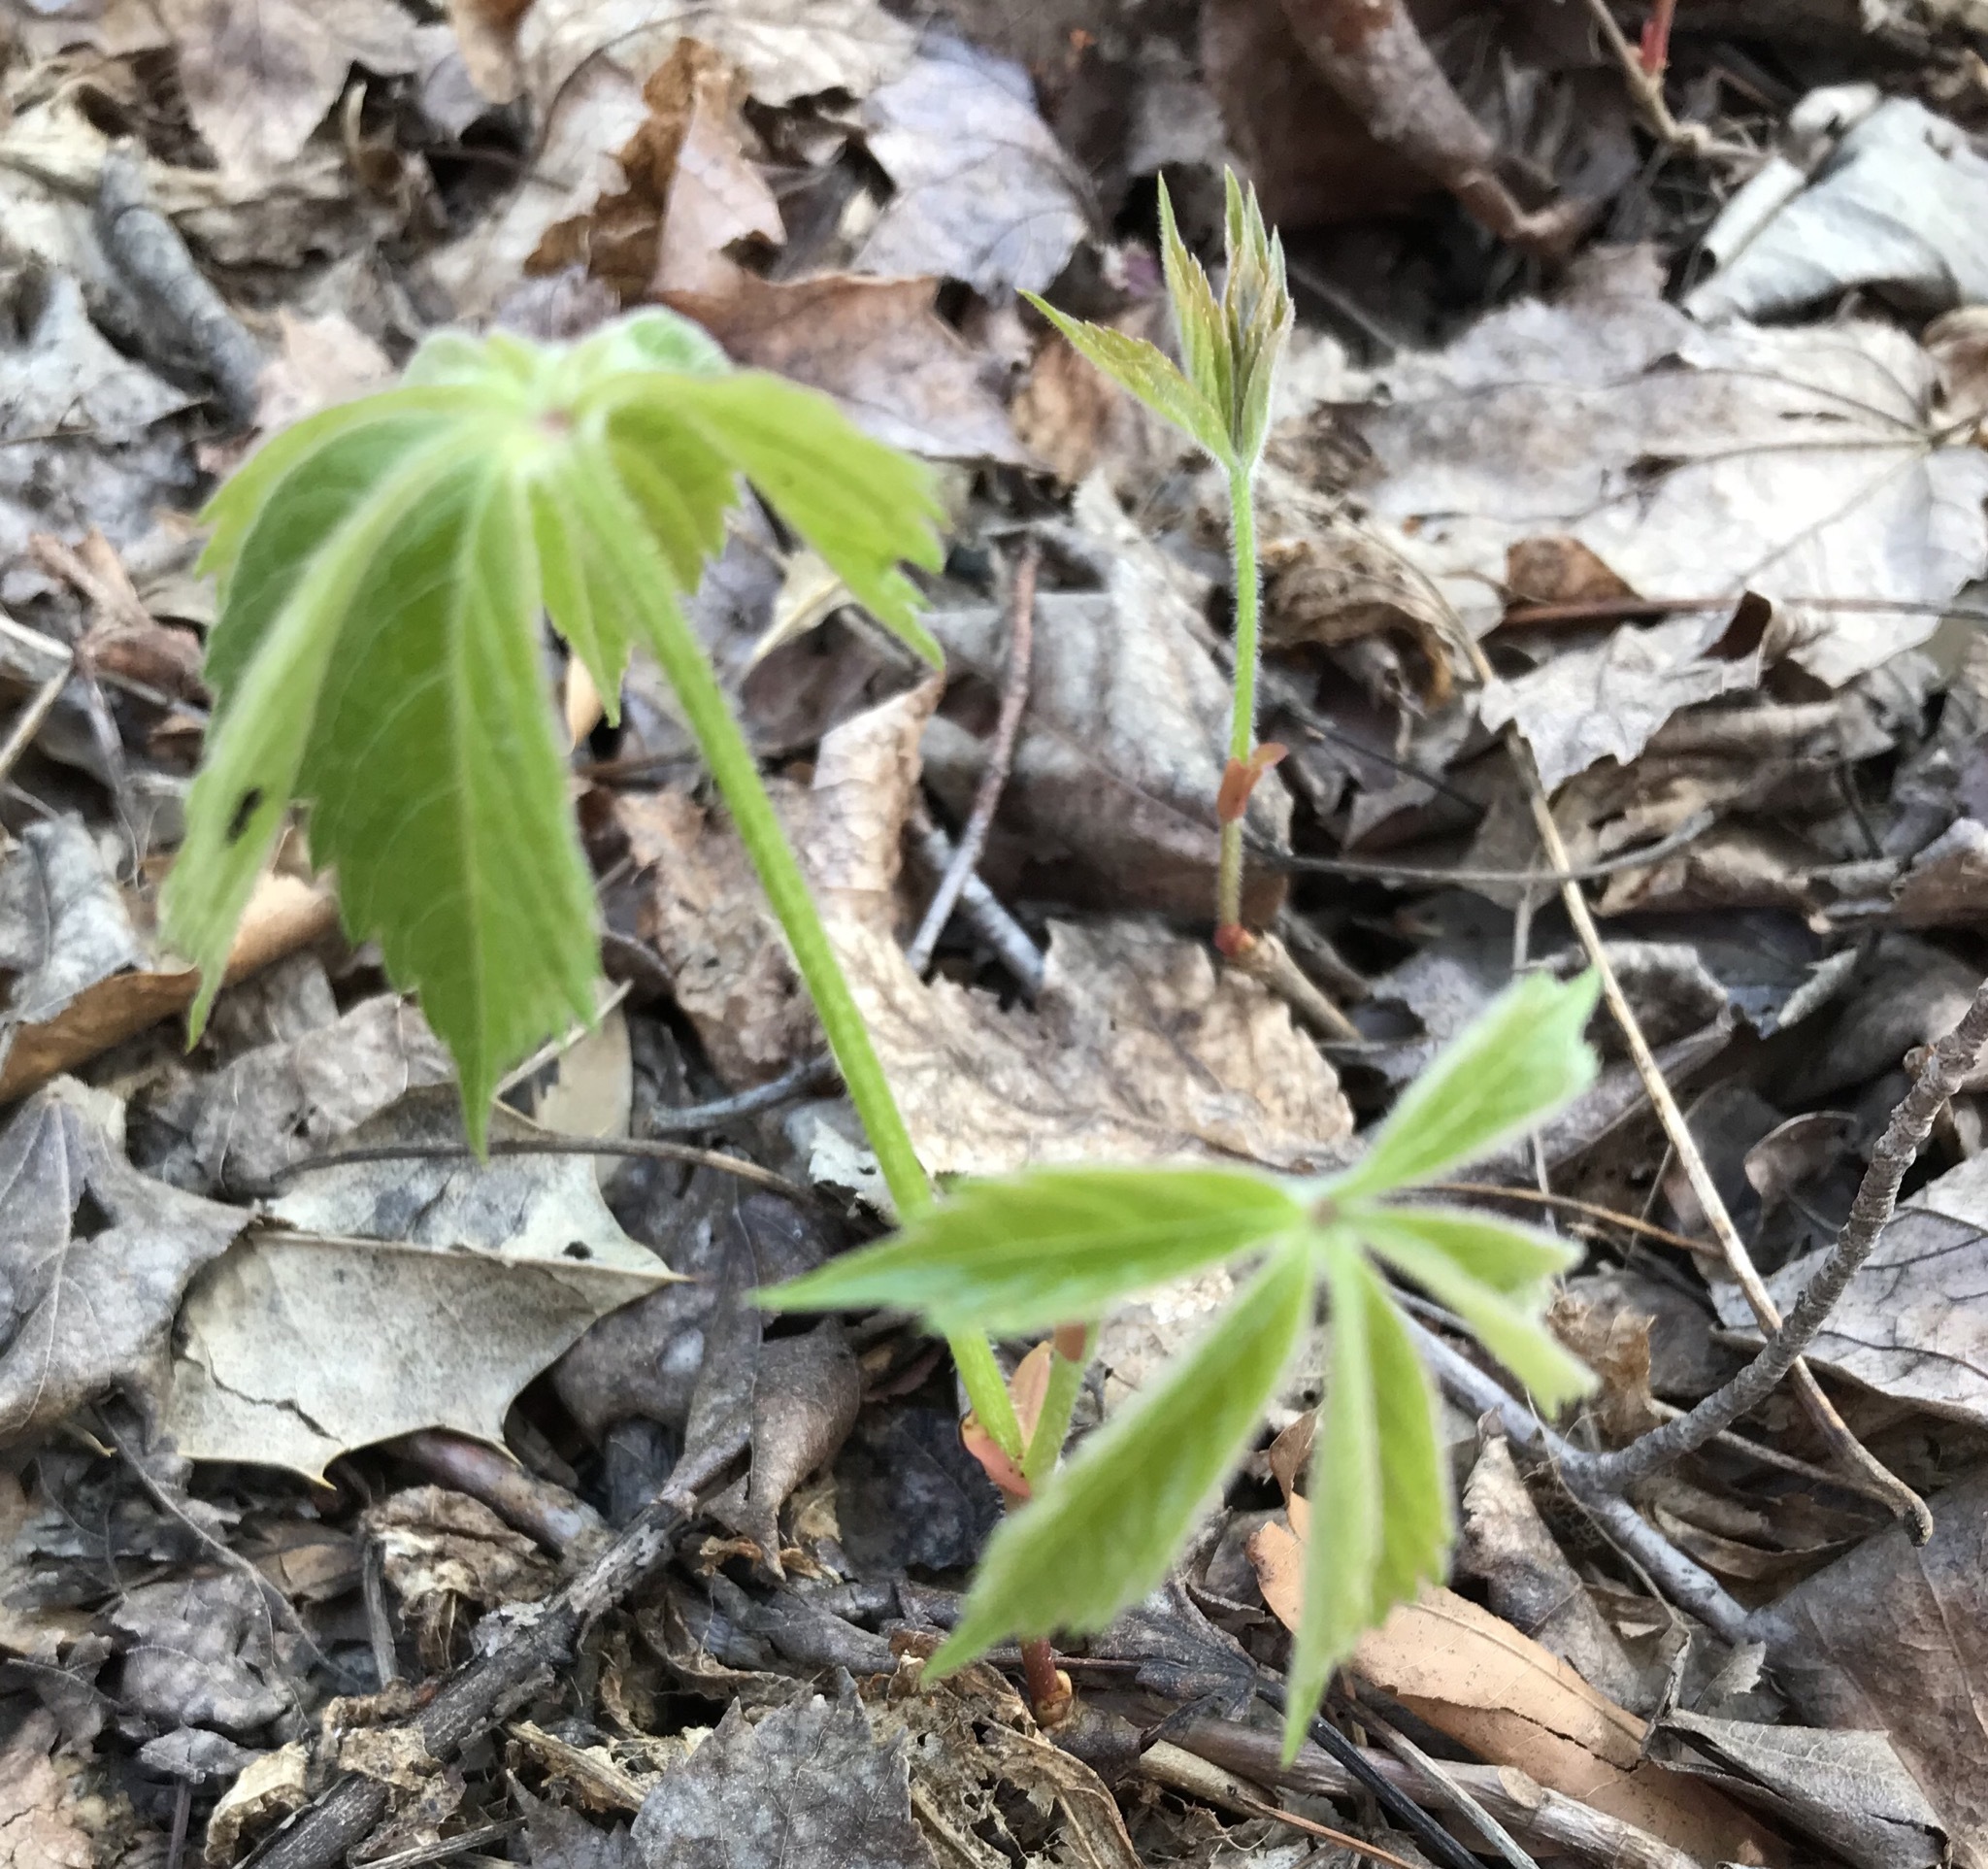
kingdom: Plantae
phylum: Tracheophyta
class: Magnoliopsida
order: Vitales
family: Vitaceae
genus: Parthenocissus
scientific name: Parthenocissus quinquefolia
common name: Virginia-creeper
